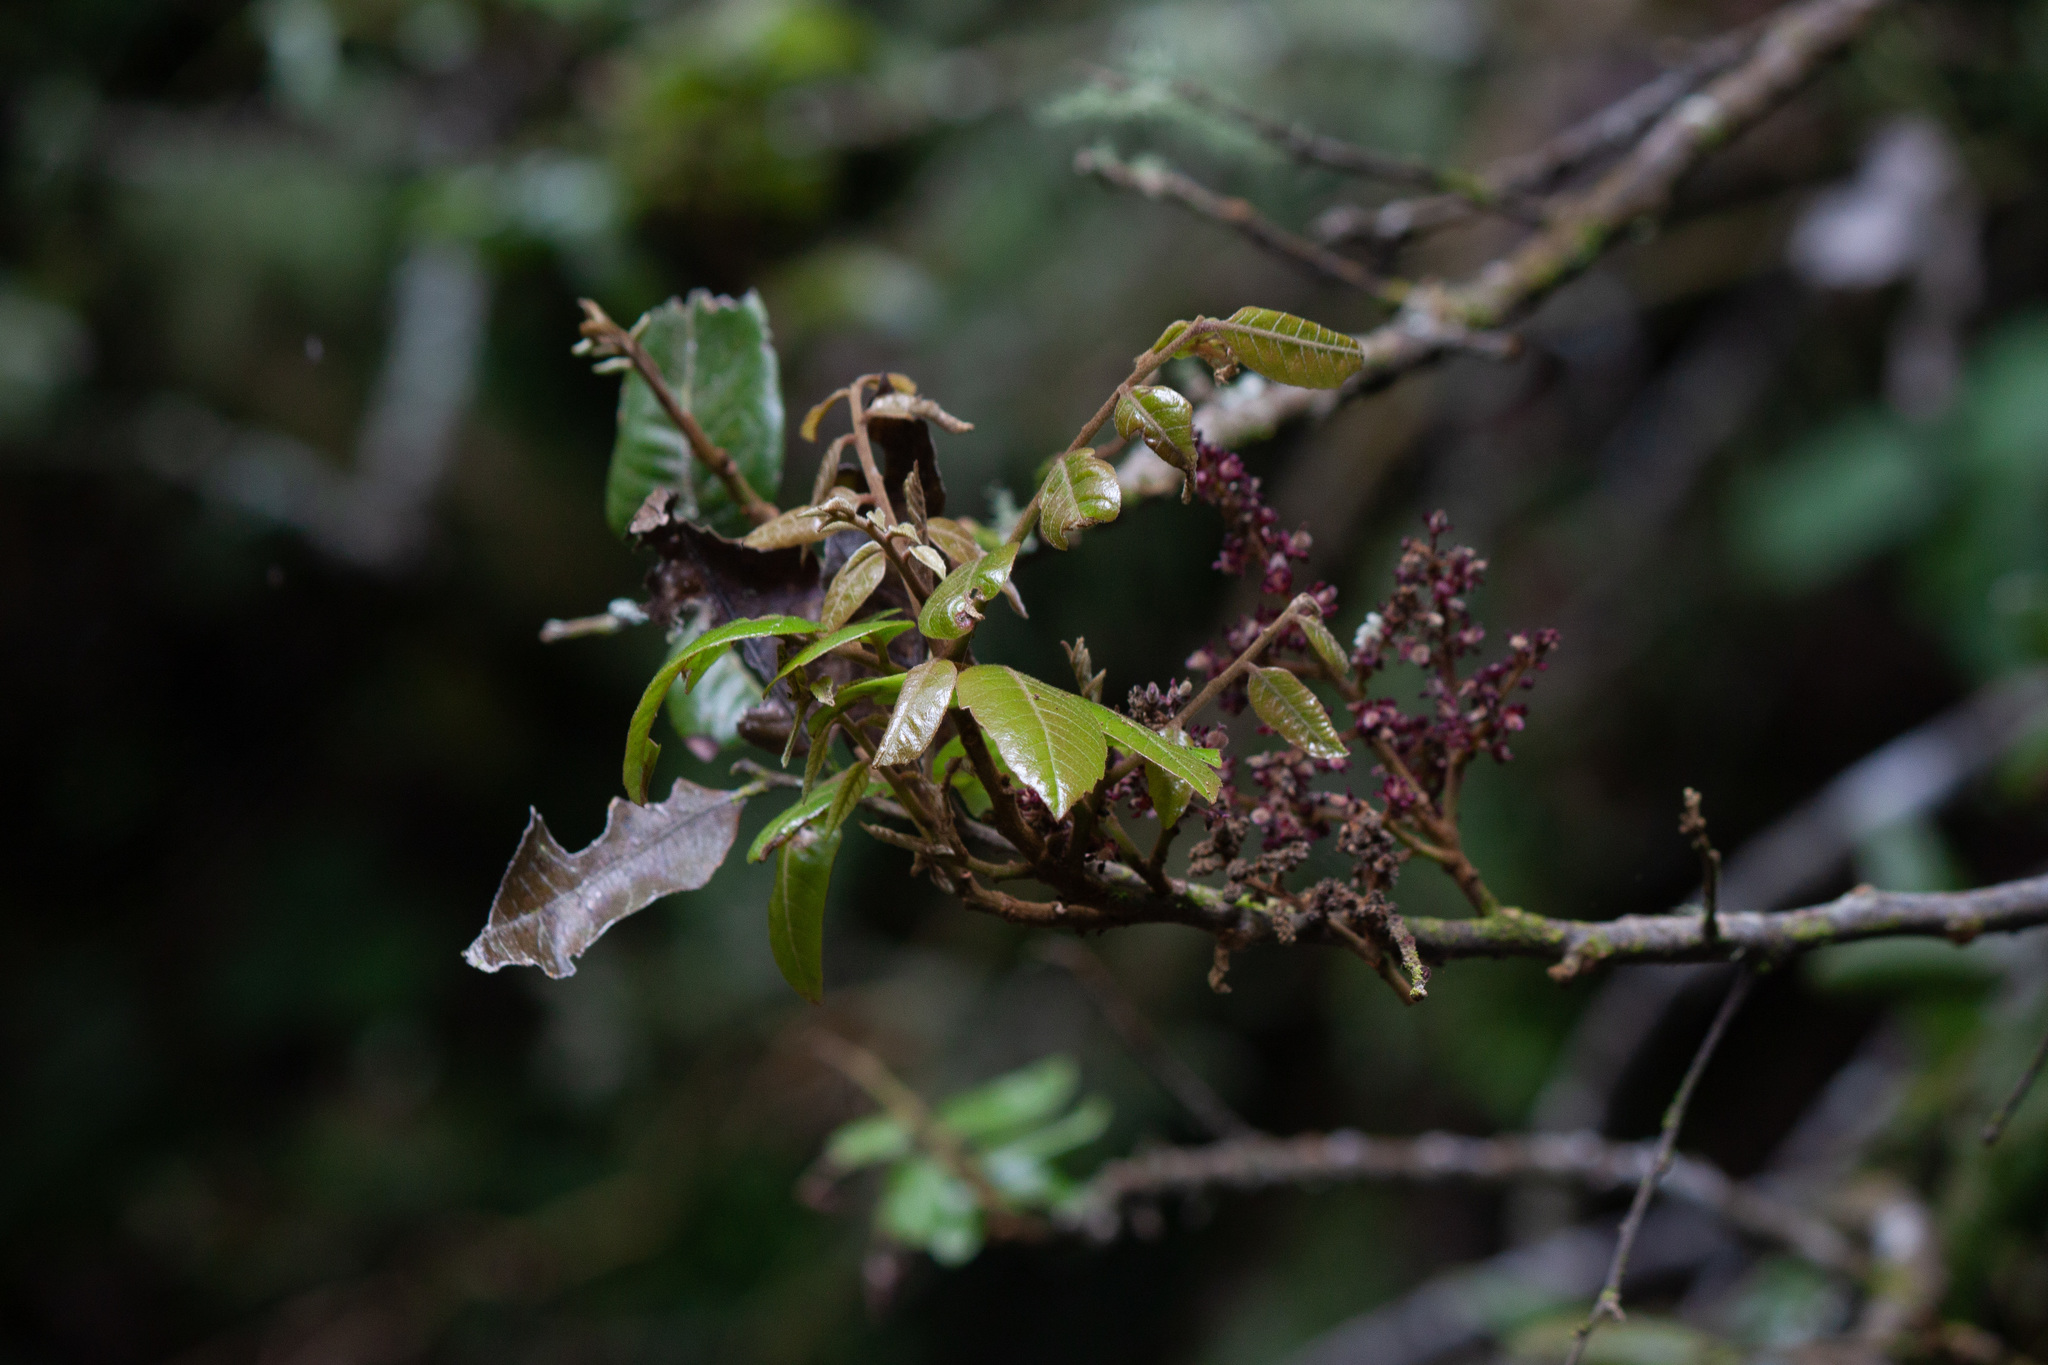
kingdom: Plantae
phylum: Tracheophyta
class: Magnoliopsida
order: Sapindales
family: Sapindaceae
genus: Alectryon
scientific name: Alectryon excelsus
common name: Three kings titoki
